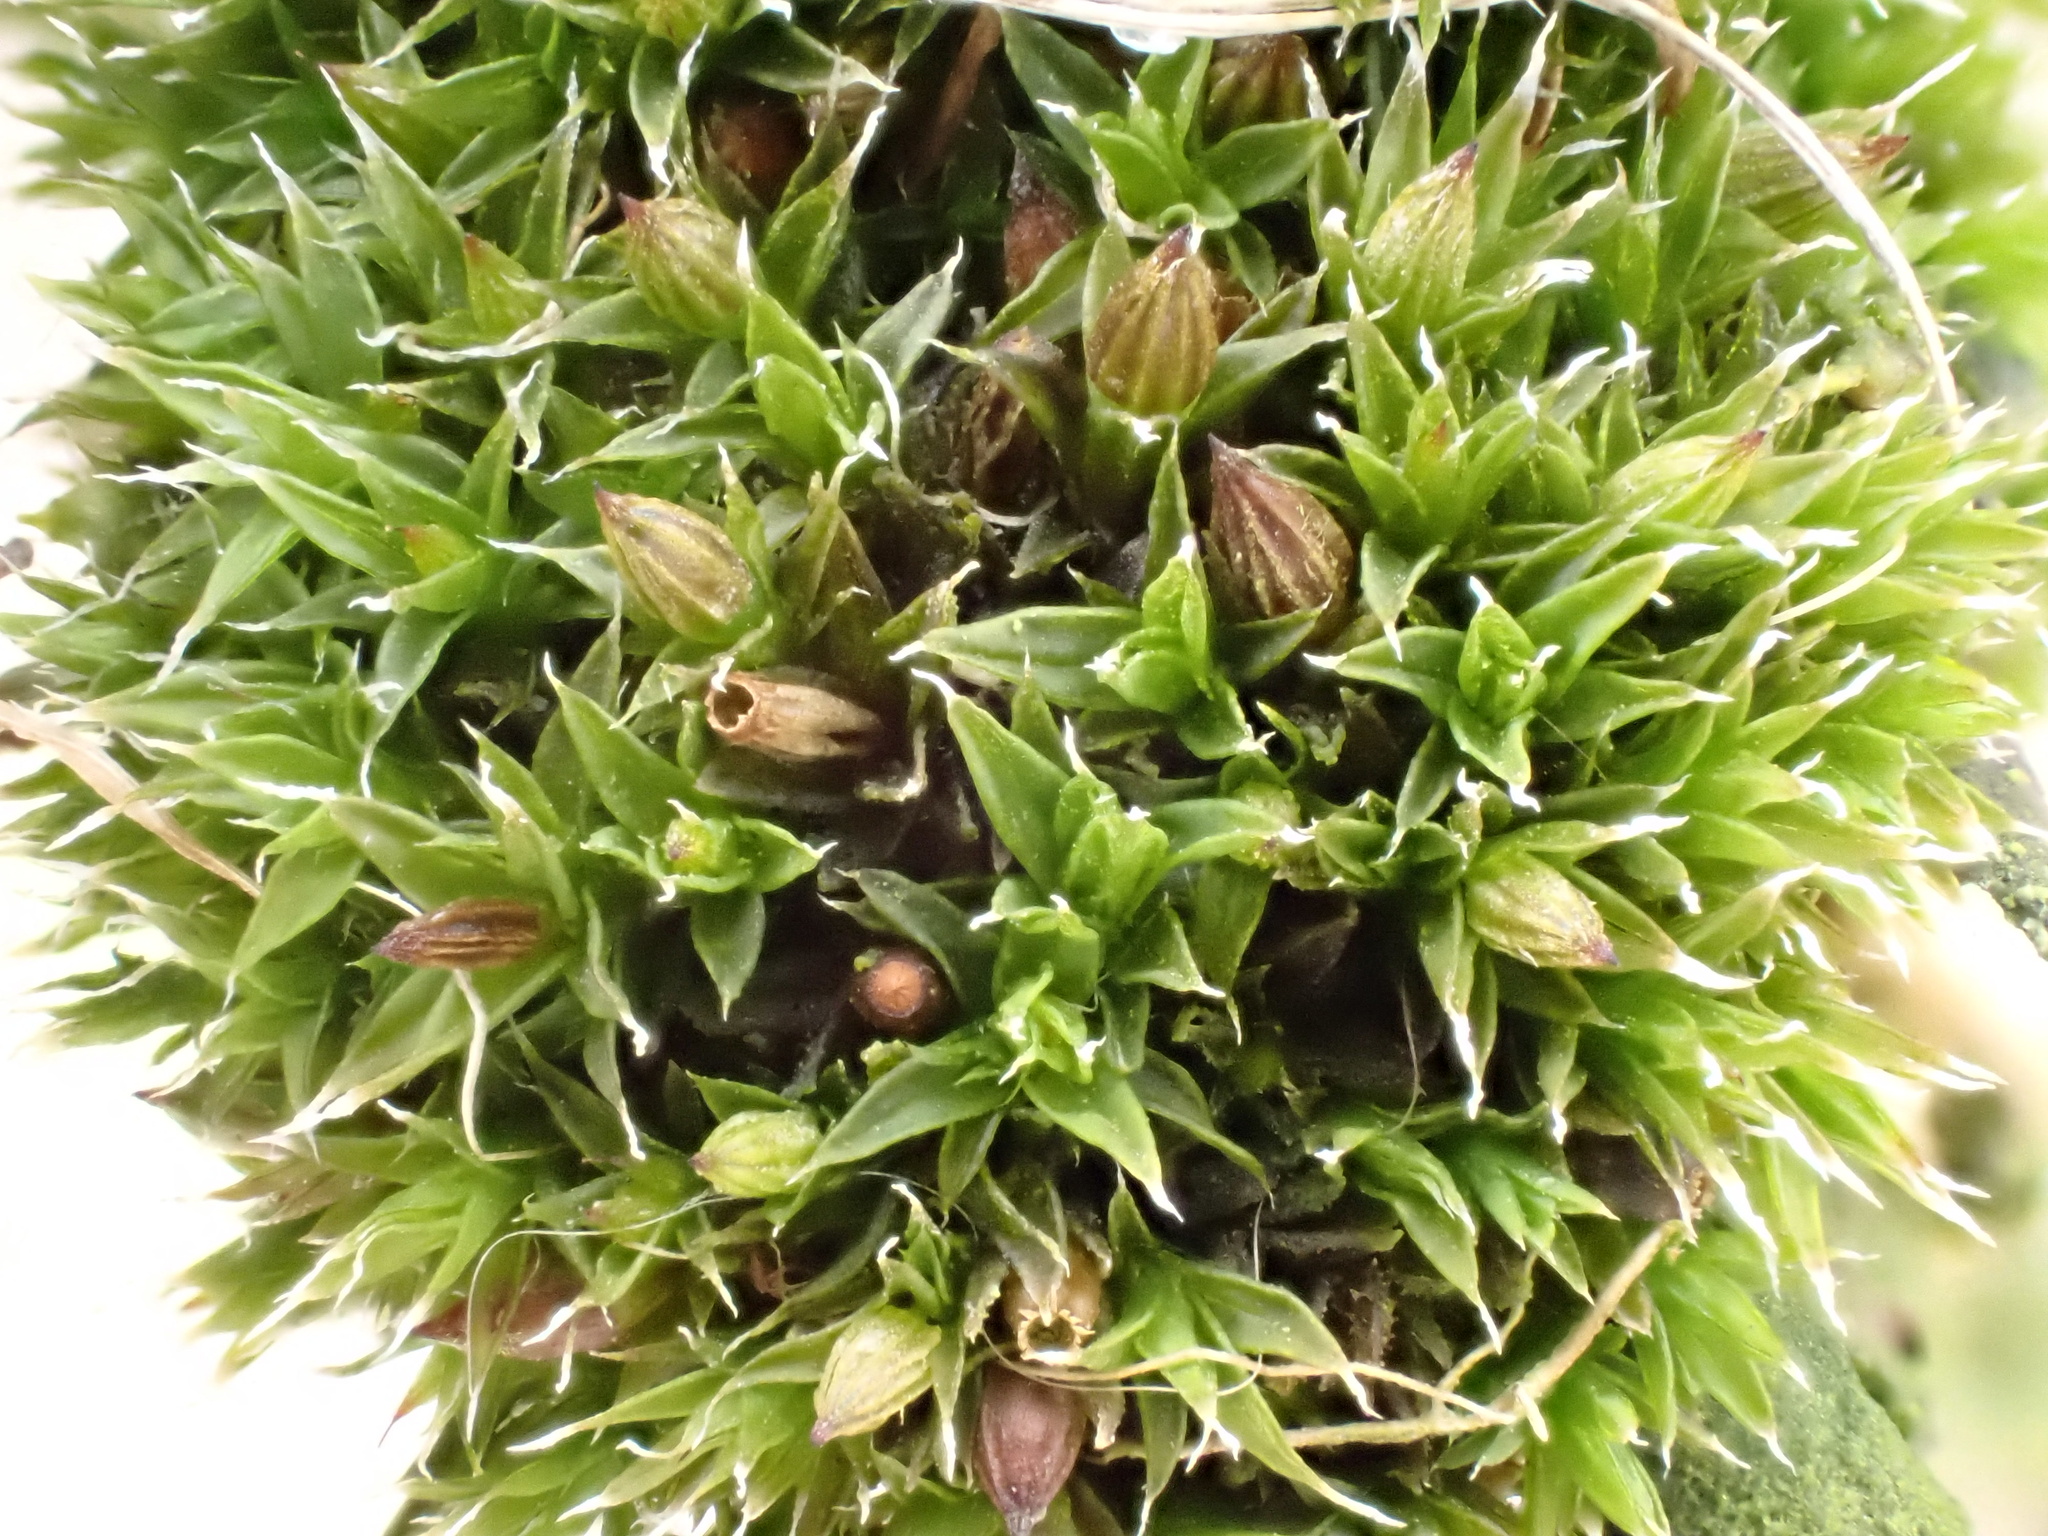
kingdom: Plantae
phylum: Bryophyta
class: Bryopsida
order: Orthotrichales
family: Orthotrichaceae
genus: Orthotrichum
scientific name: Orthotrichum diaphanum
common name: White-tipped bristle-moss
